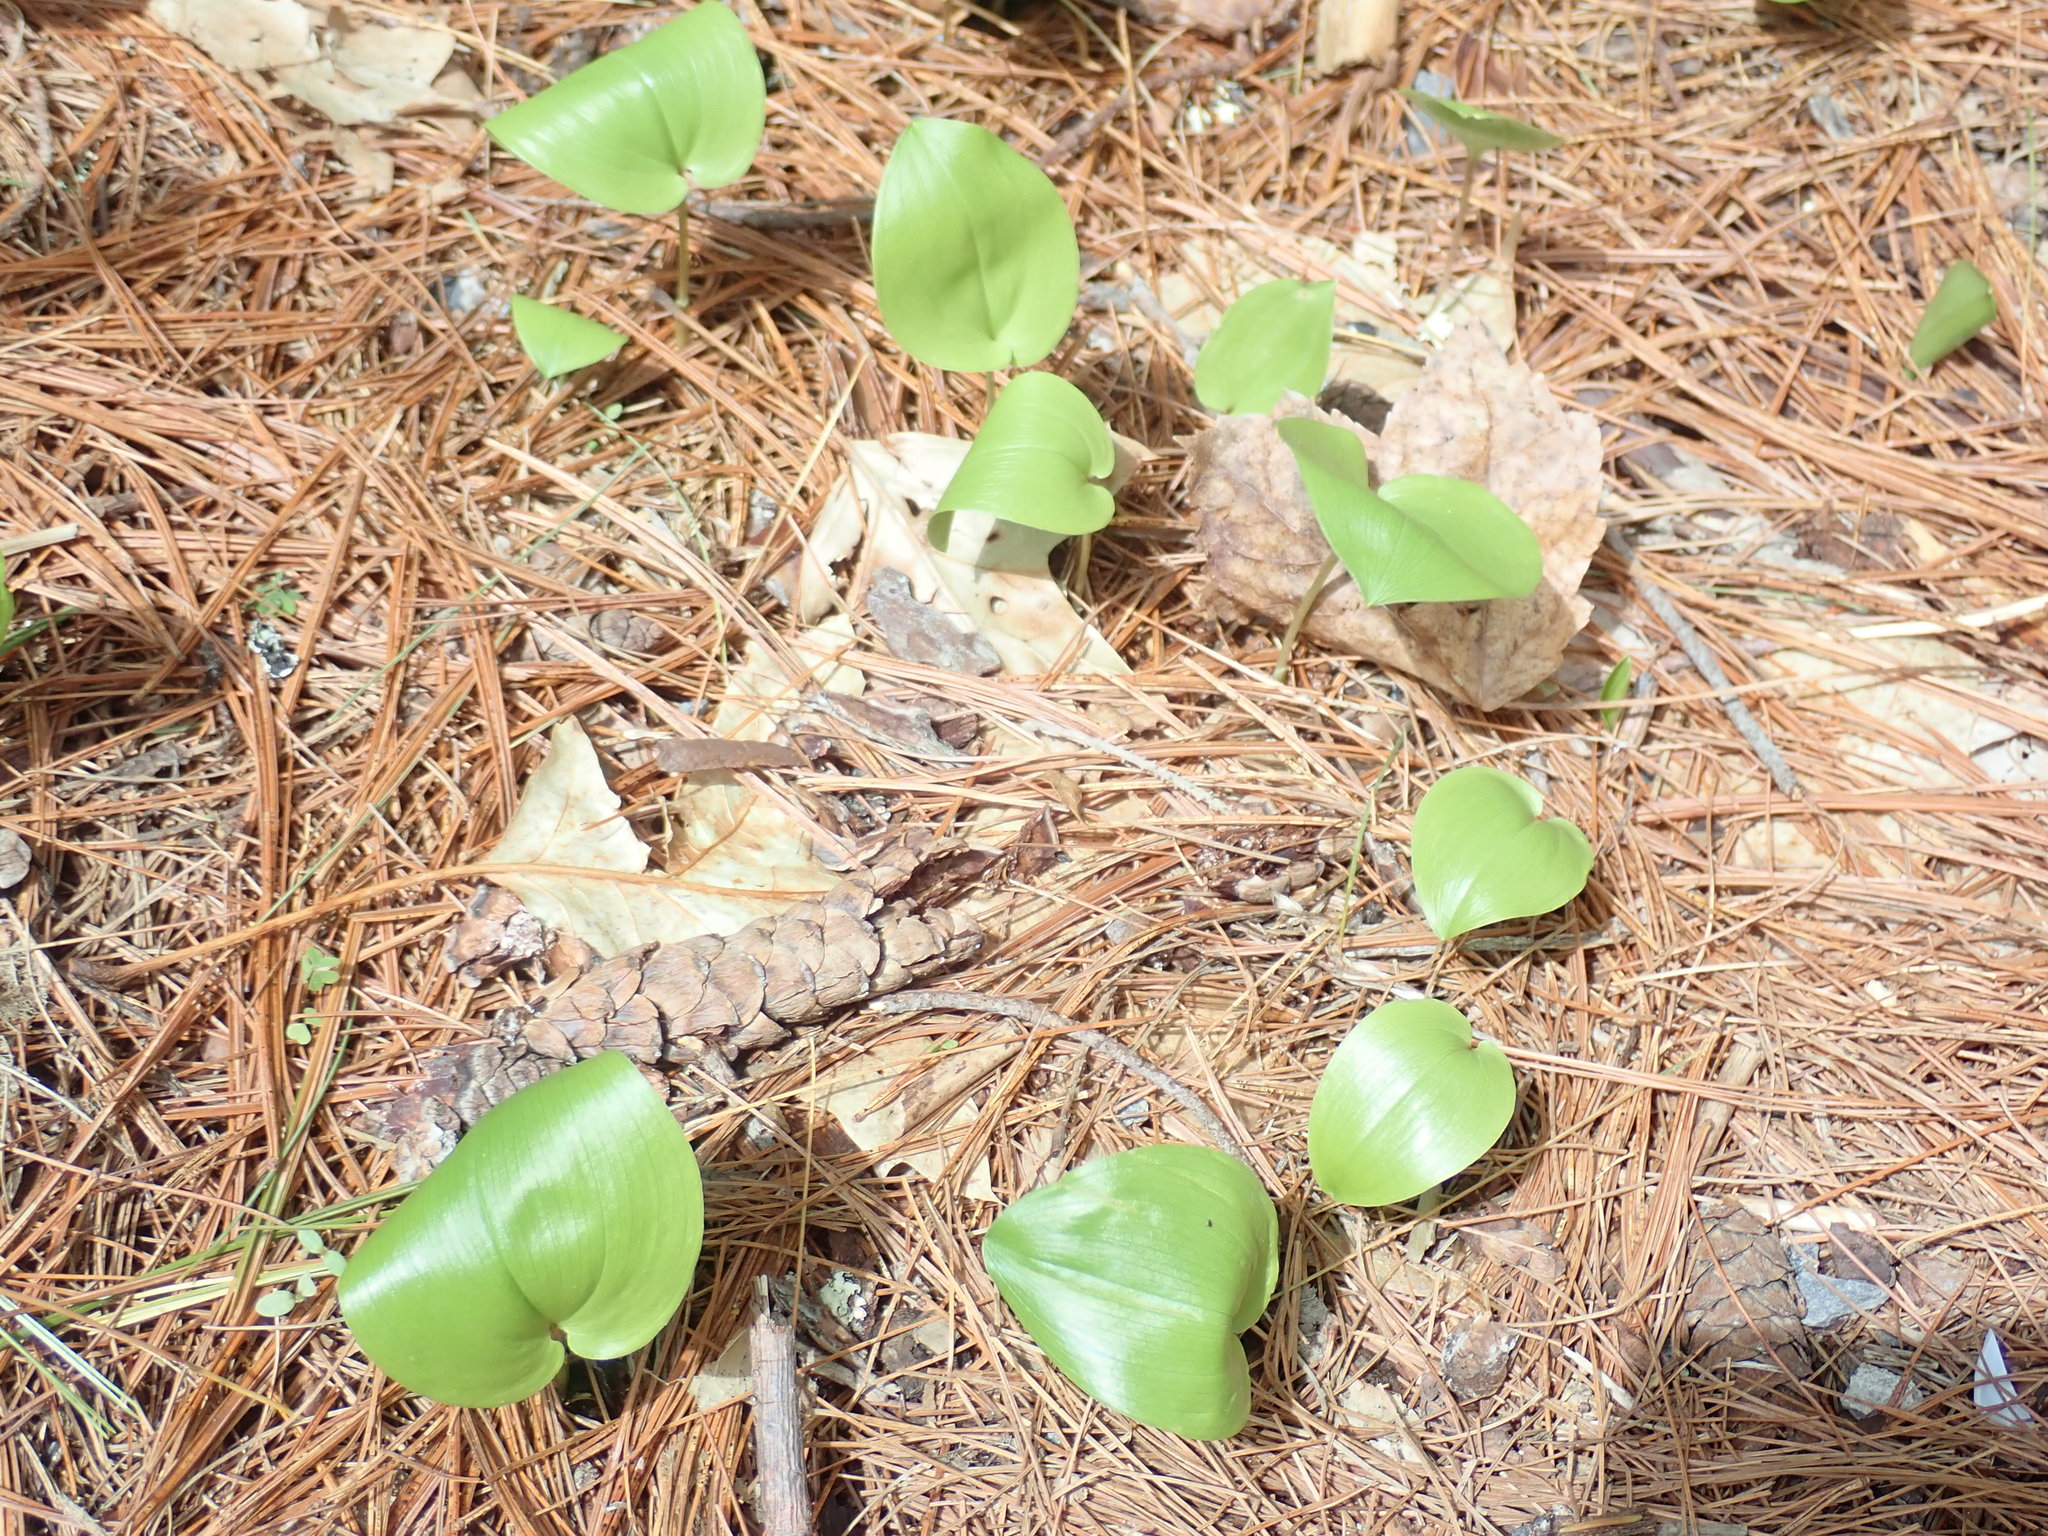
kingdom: Plantae
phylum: Tracheophyta
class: Liliopsida
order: Asparagales
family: Asparagaceae
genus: Maianthemum
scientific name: Maianthemum canadense
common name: False lily-of-the-valley
